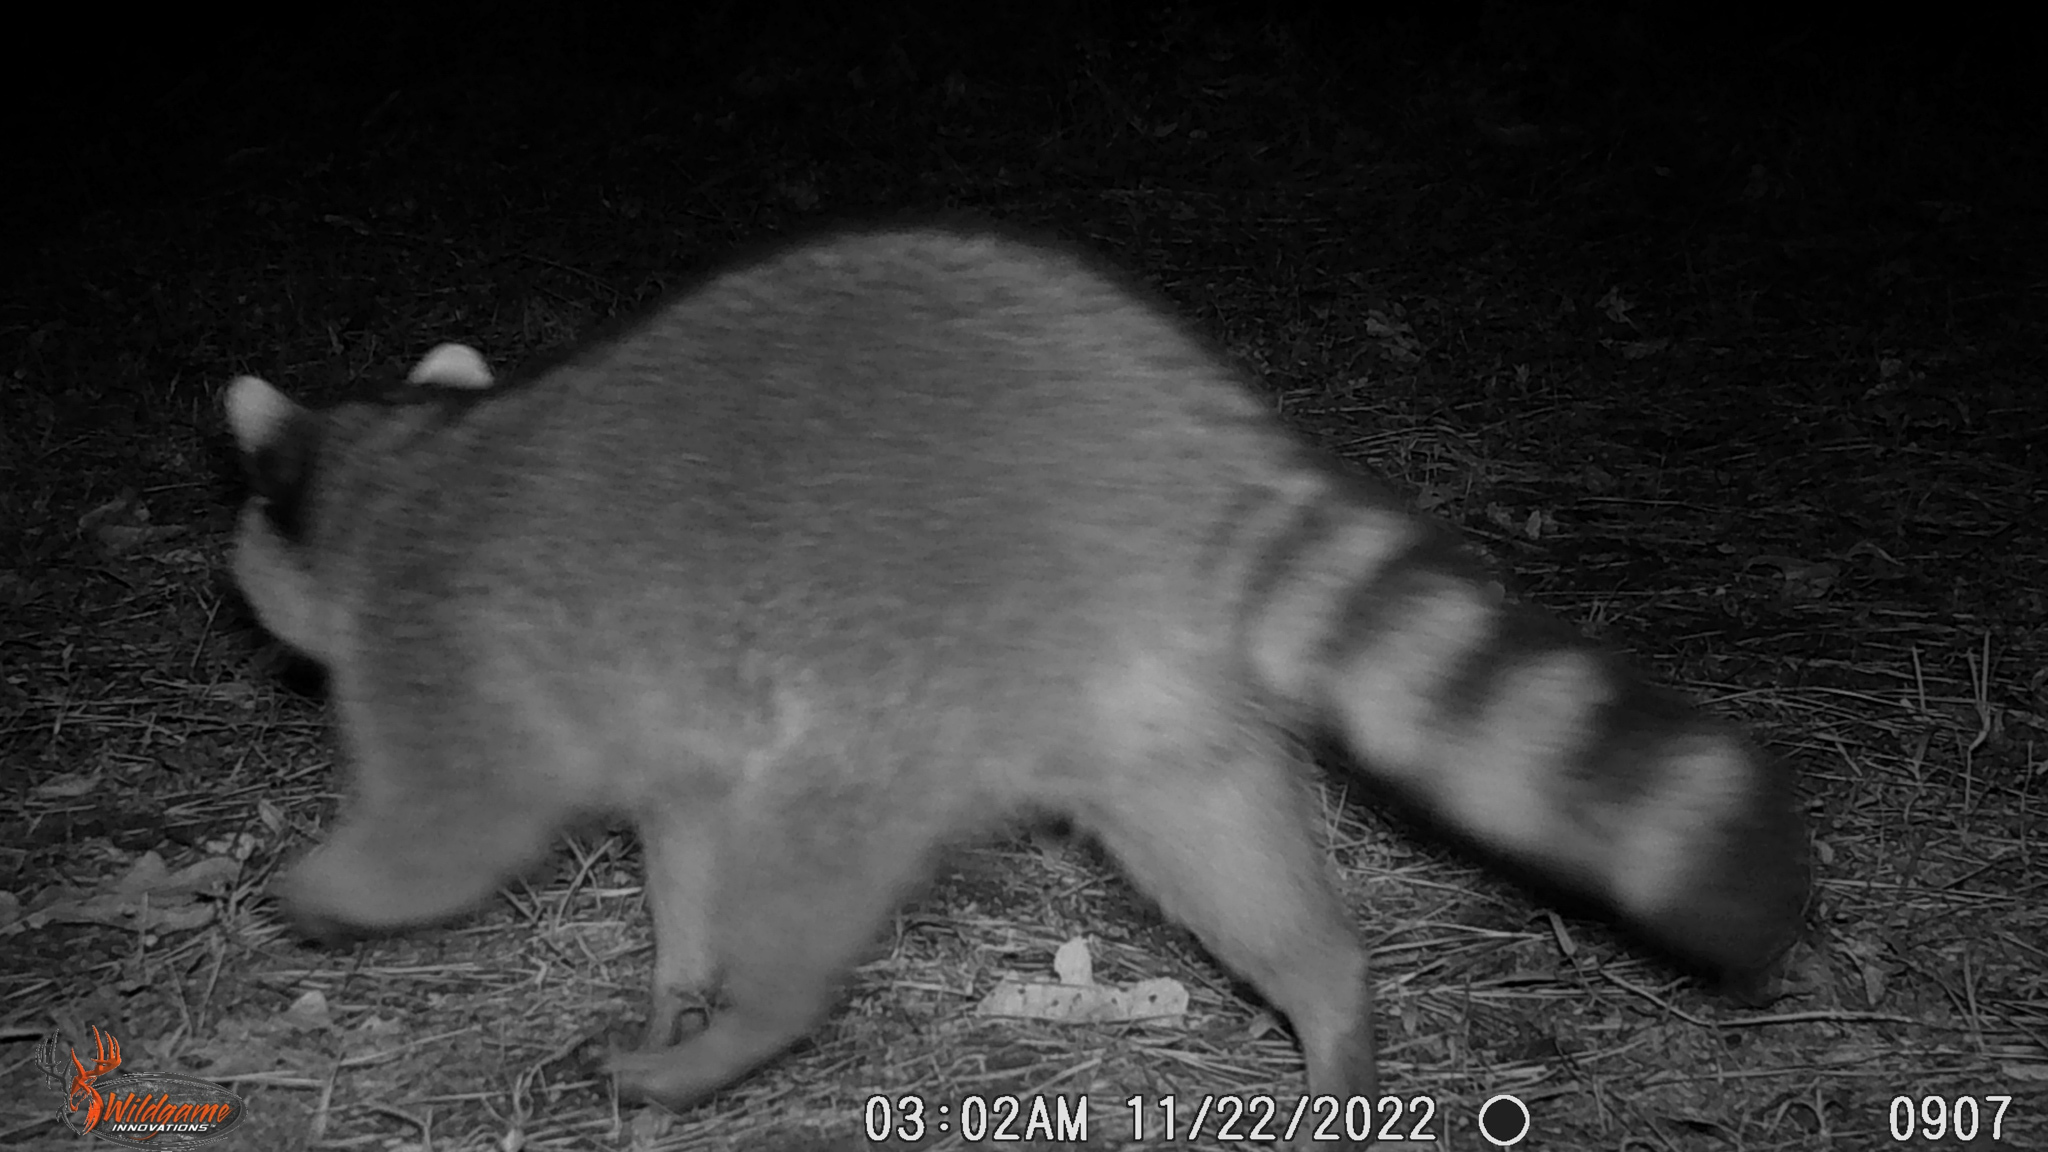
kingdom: Animalia
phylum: Chordata
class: Mammalia
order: Carnivora
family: Procyonidae
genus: Procyon
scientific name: Procyon lotor
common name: Raccoon
